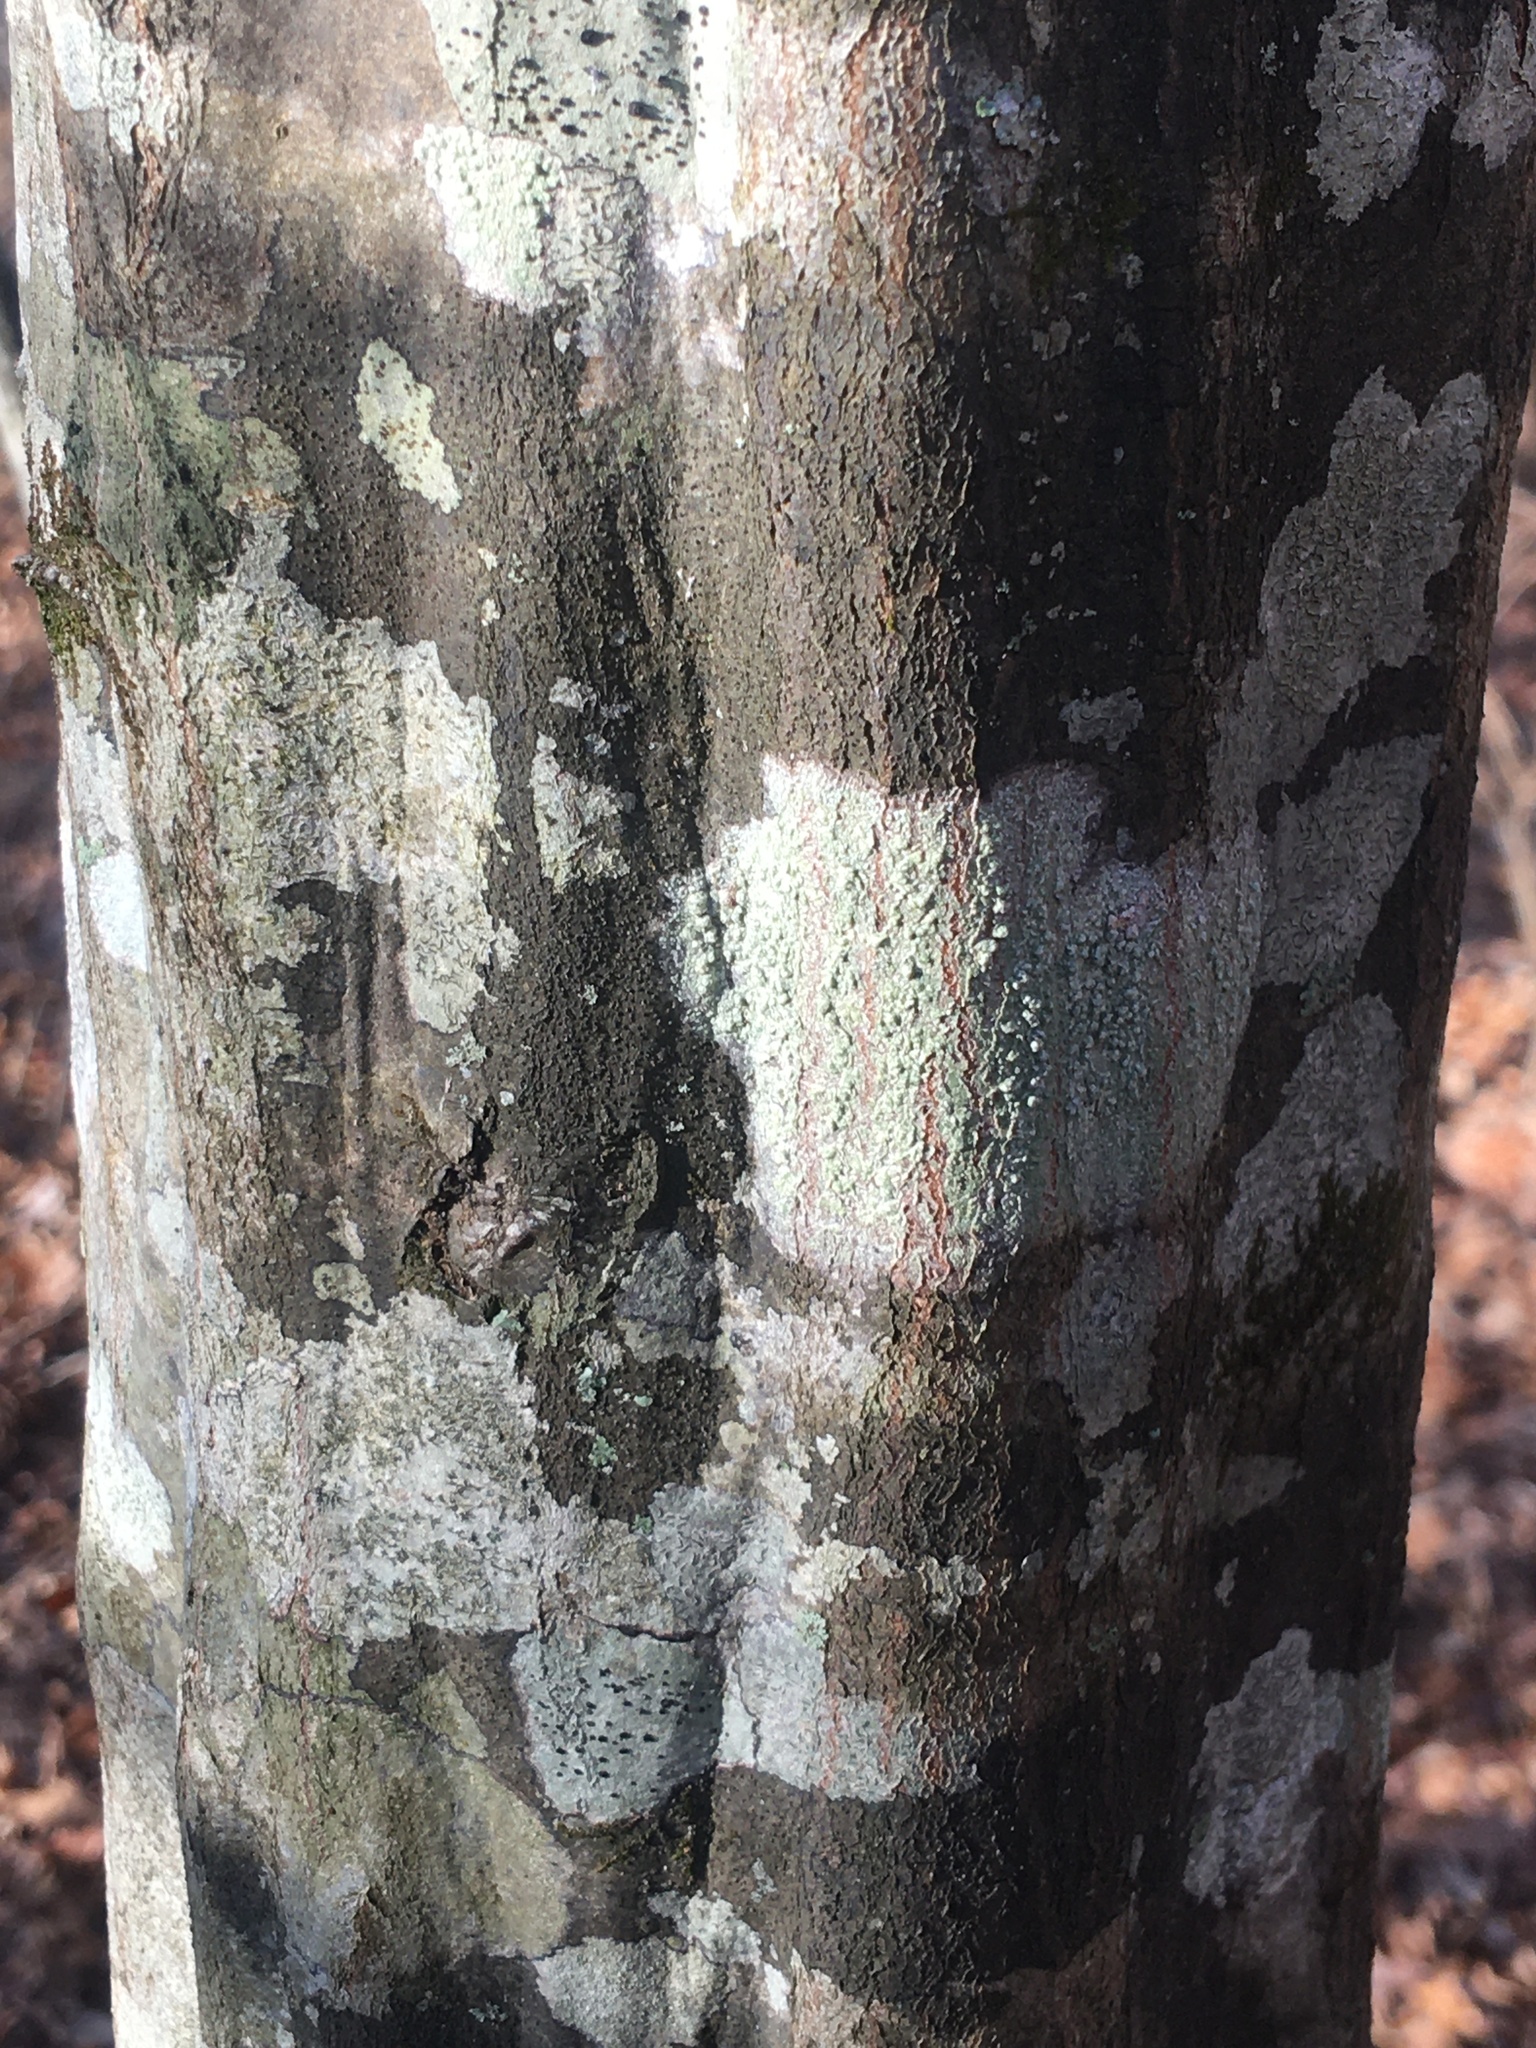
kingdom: Plantae
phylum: Tracheophyta
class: Magnoliopsida
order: Fagales
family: Betulaceae
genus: Carpinus
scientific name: Carpinus caroliniana
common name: American hornbeam
